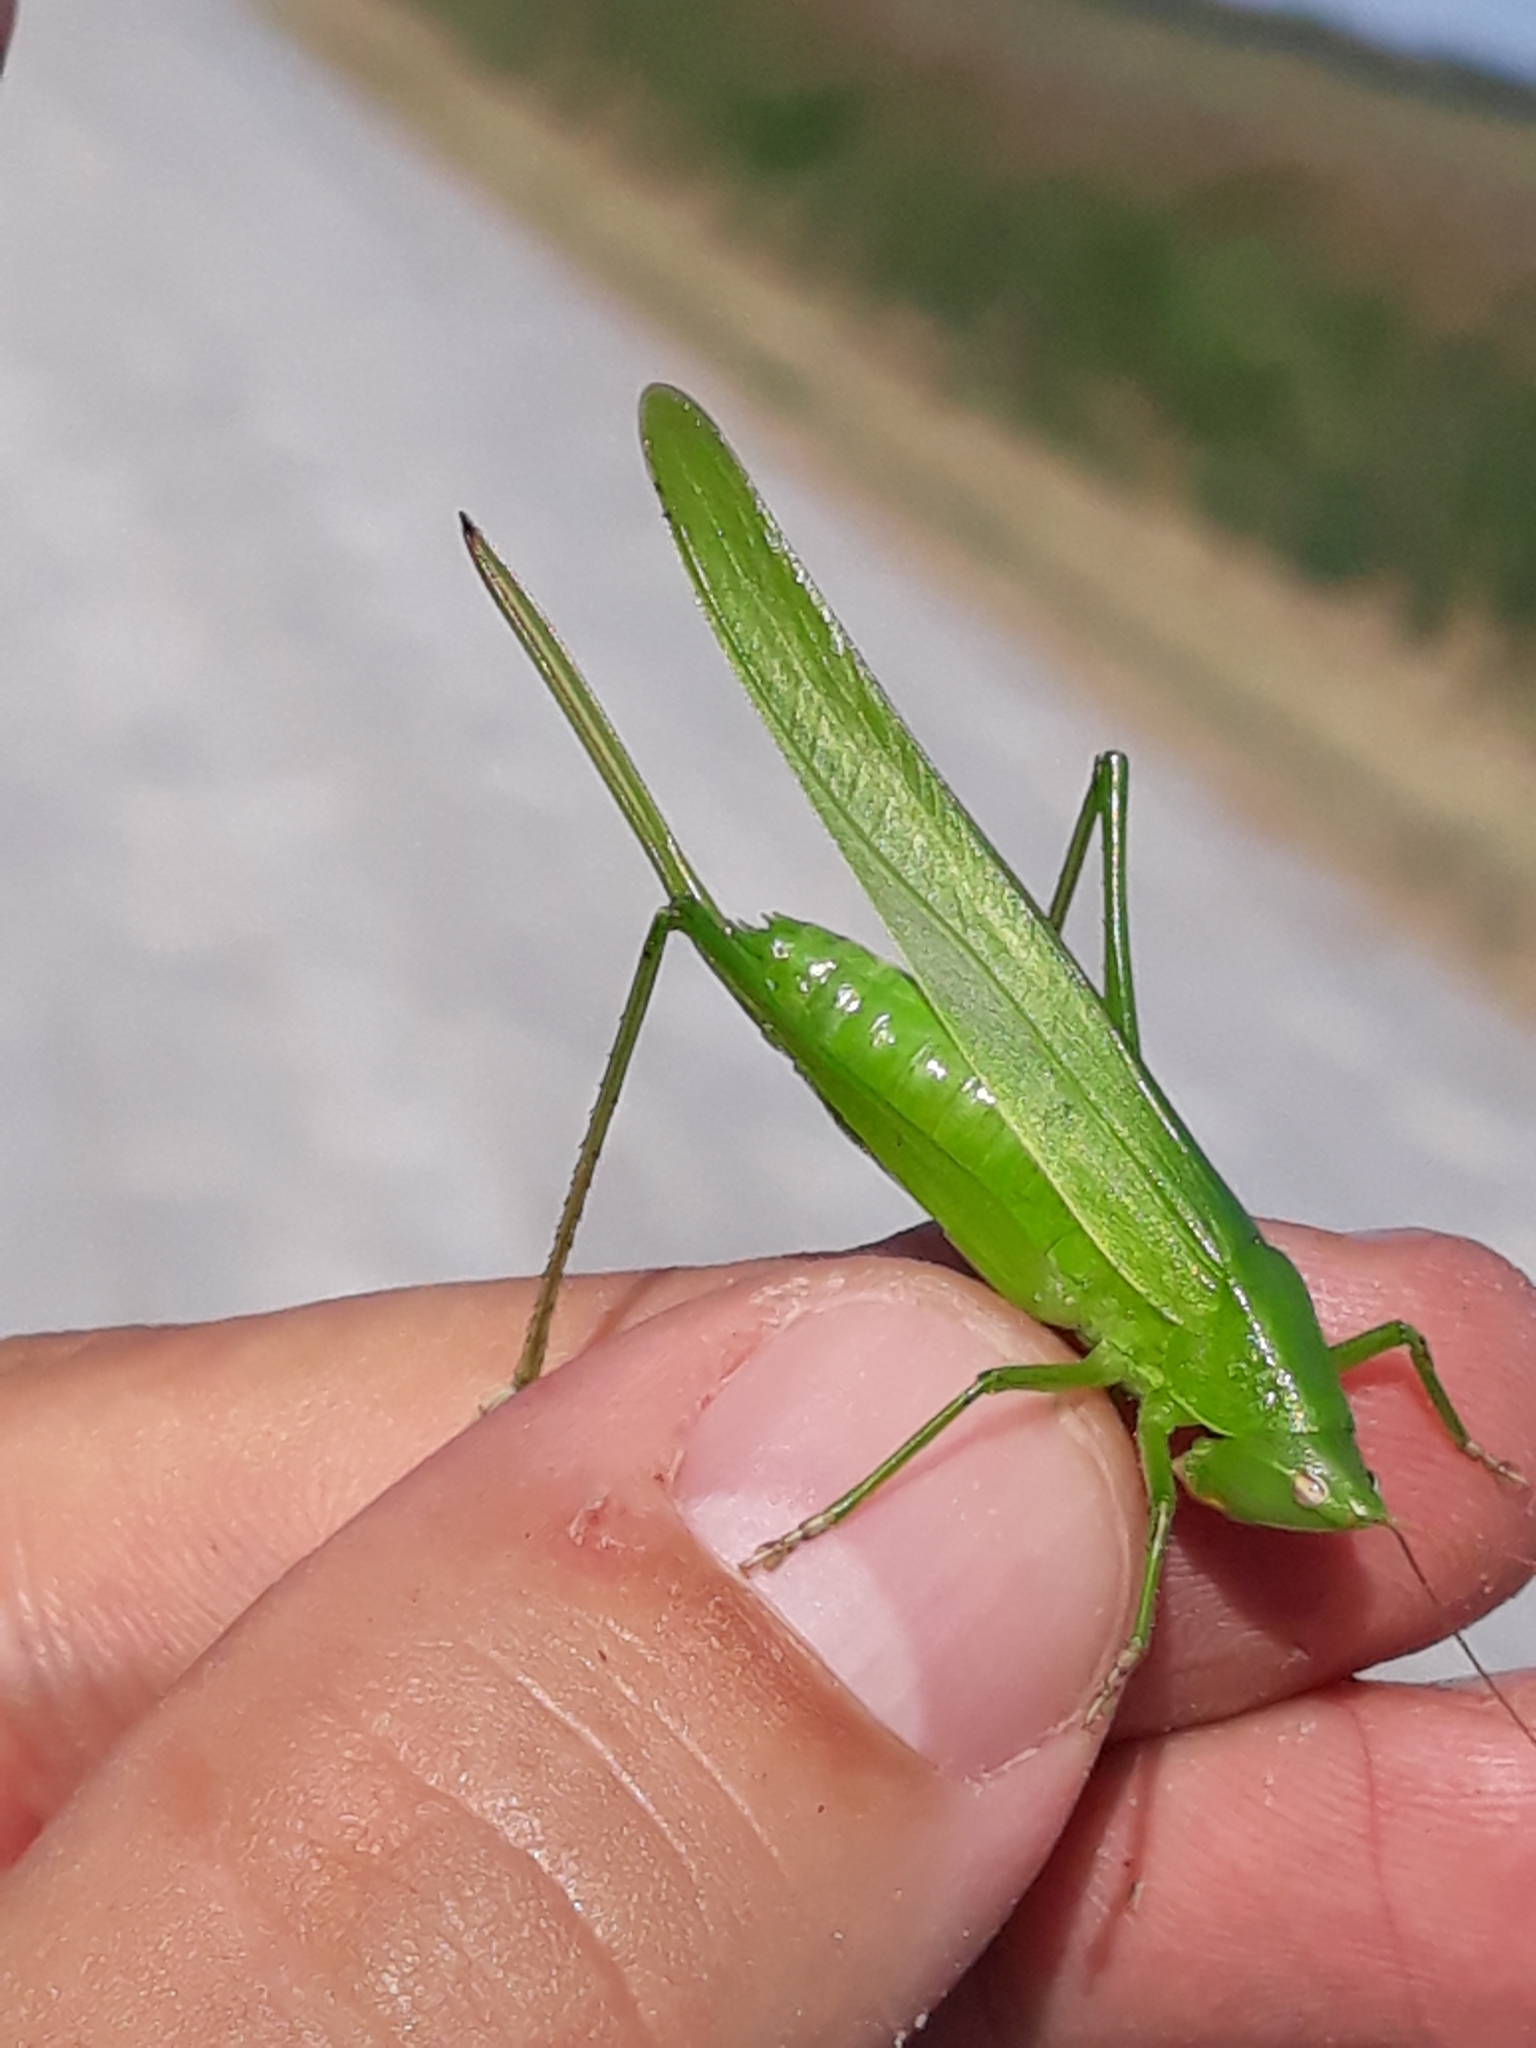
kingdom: Animalia
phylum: Arthropoda
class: Insecta
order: Orthoptera
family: Tettigoniidae
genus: Ruspolia
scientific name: Ruspolia nitidula
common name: Large conehead
